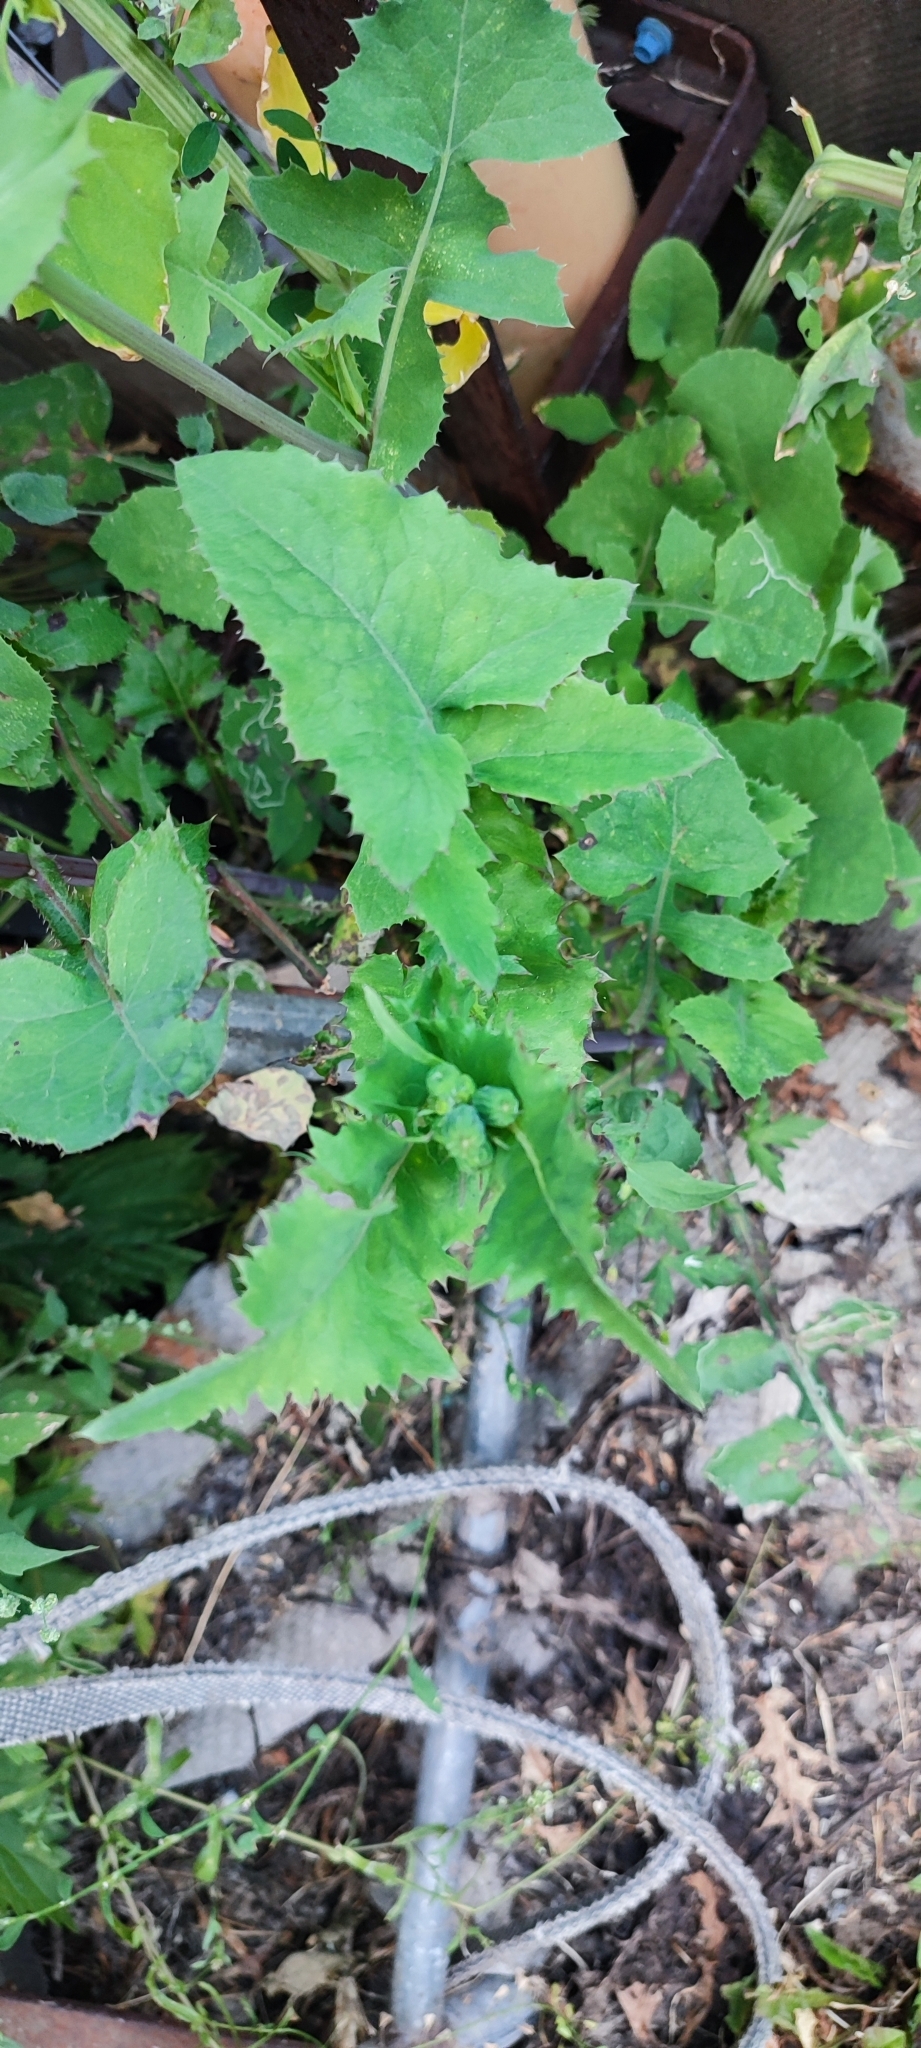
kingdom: Plantae
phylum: Tracheophyta
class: Magnoliopsida
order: Asterales
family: Asteraceae
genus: Sonchus
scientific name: Sonchus oleraceus
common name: Common sowthistle
